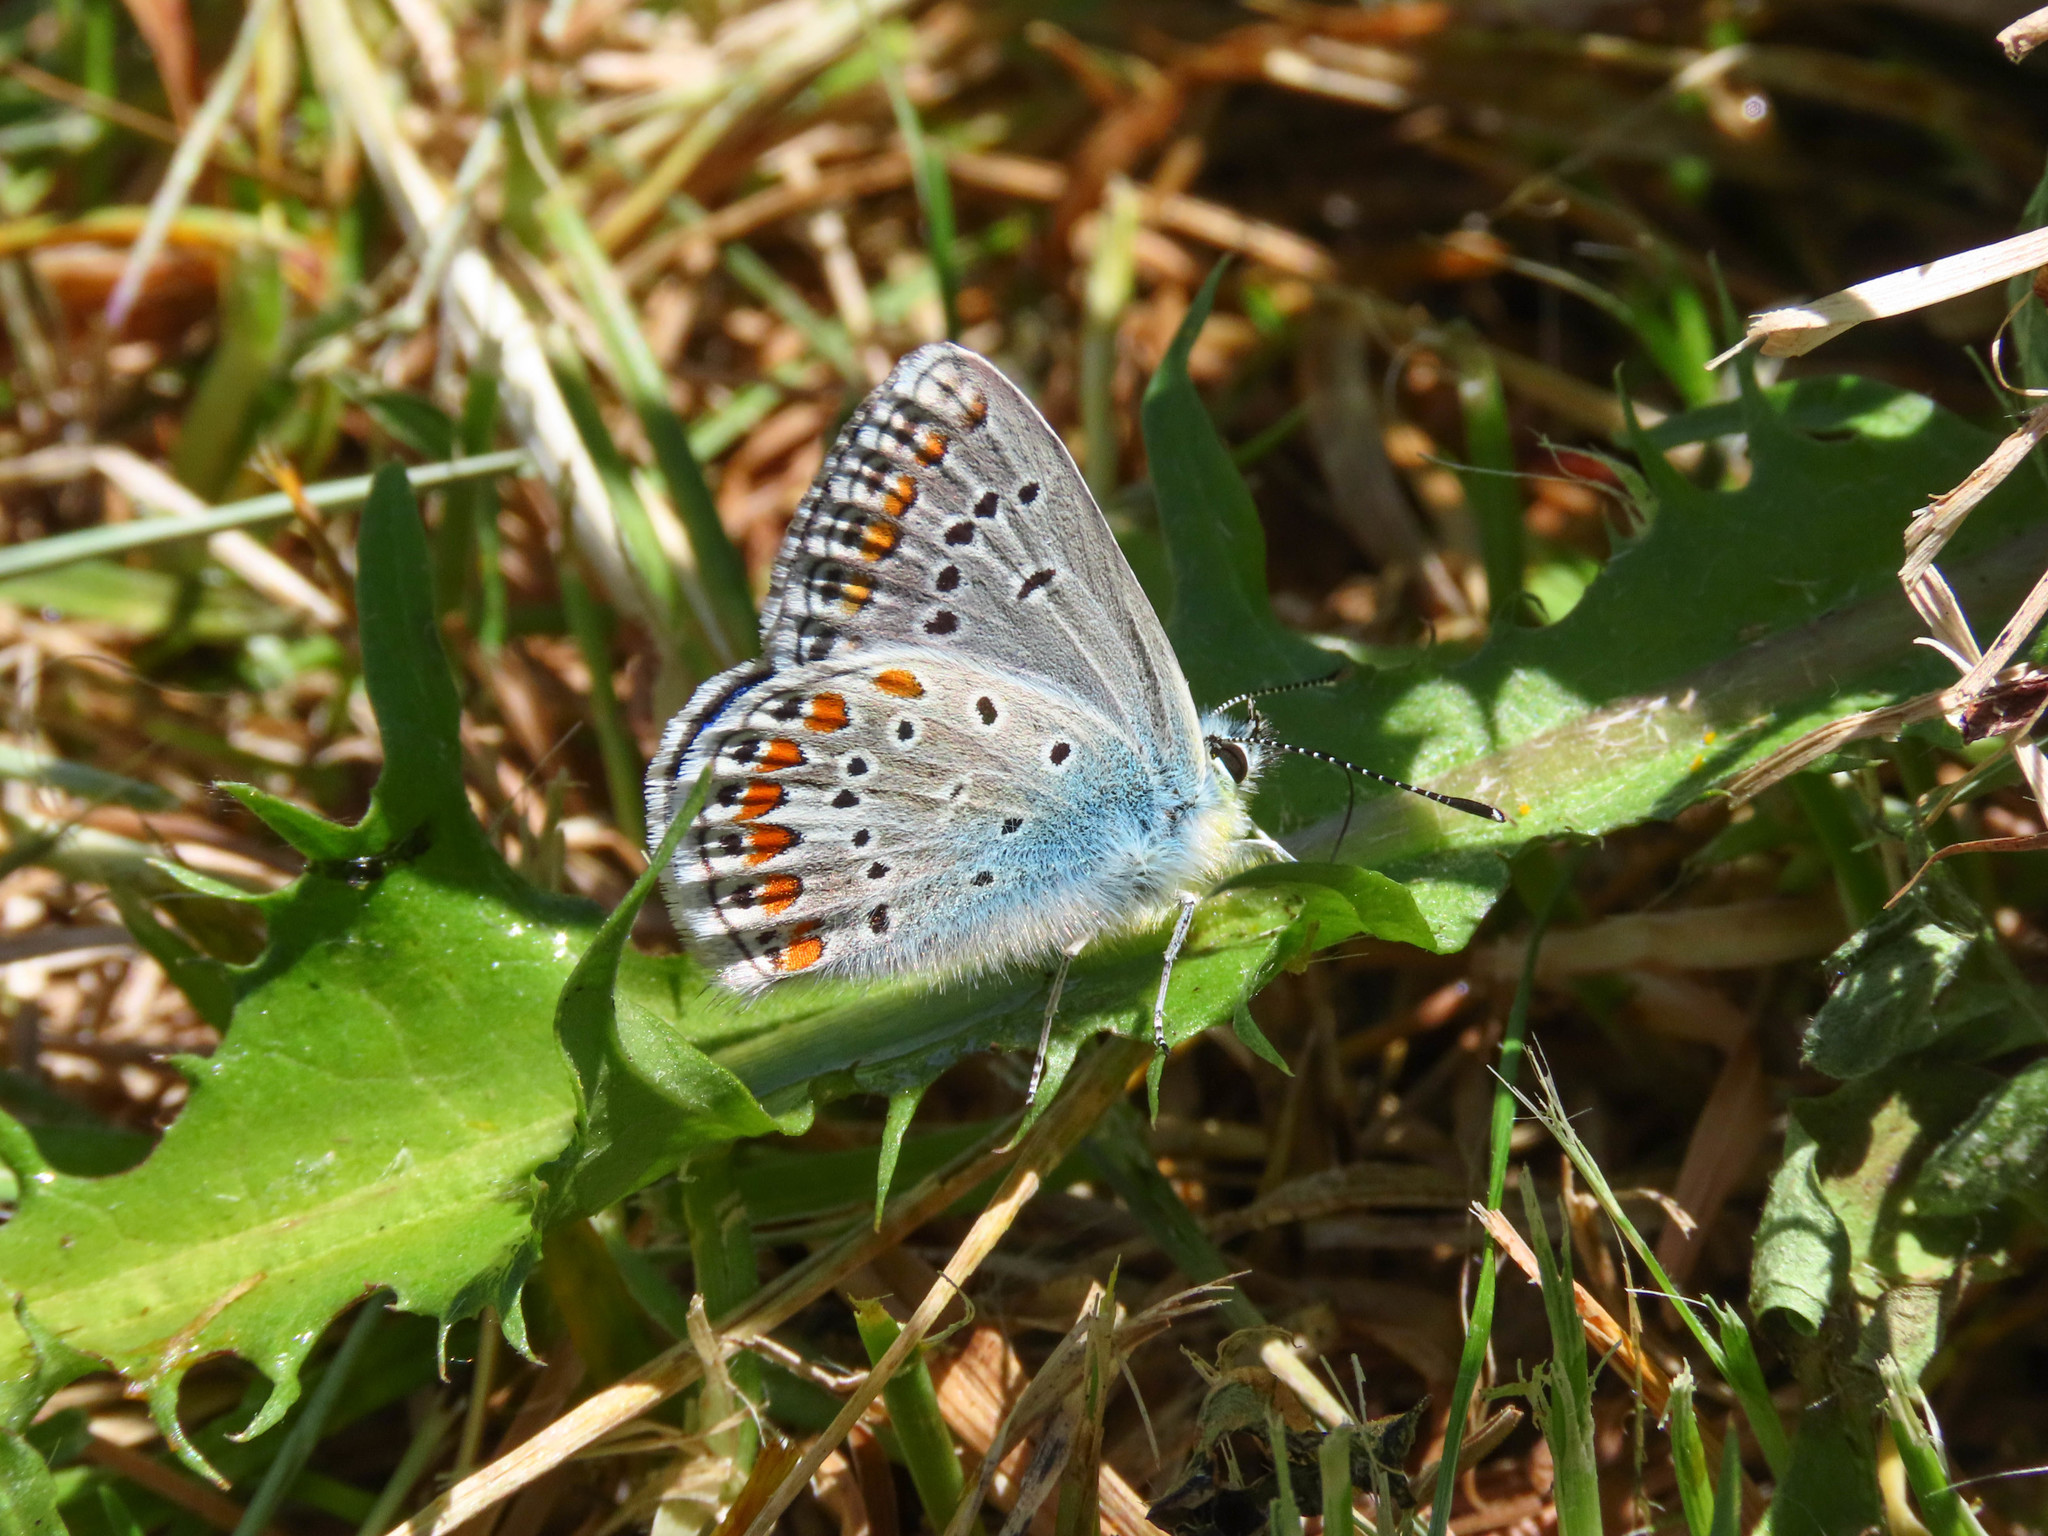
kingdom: Animalia
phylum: Arthropoda
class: Insecta
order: Lepidoptera
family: Lycaenidae
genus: Polyommatus
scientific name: Polyommatus thersites
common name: Chapman's blue
